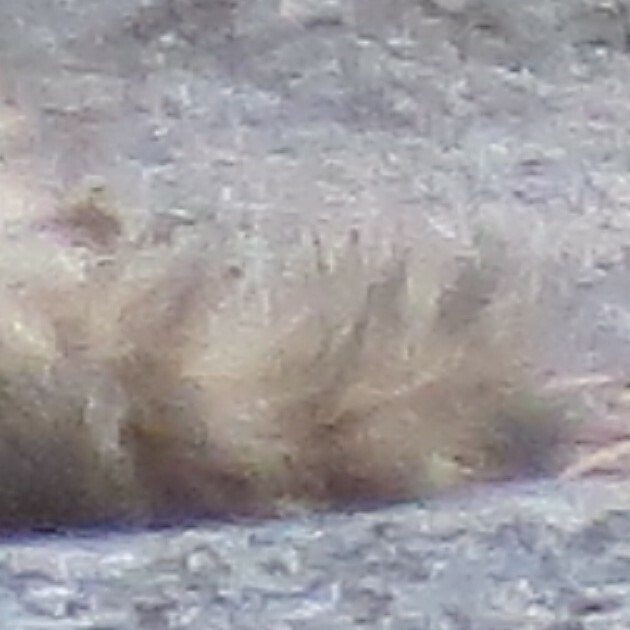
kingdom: Animalia
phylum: Chordata
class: Mammalia
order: Carnivora
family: Procyonidae
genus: Procyon
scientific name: Procyon lotor
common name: Raccoon
